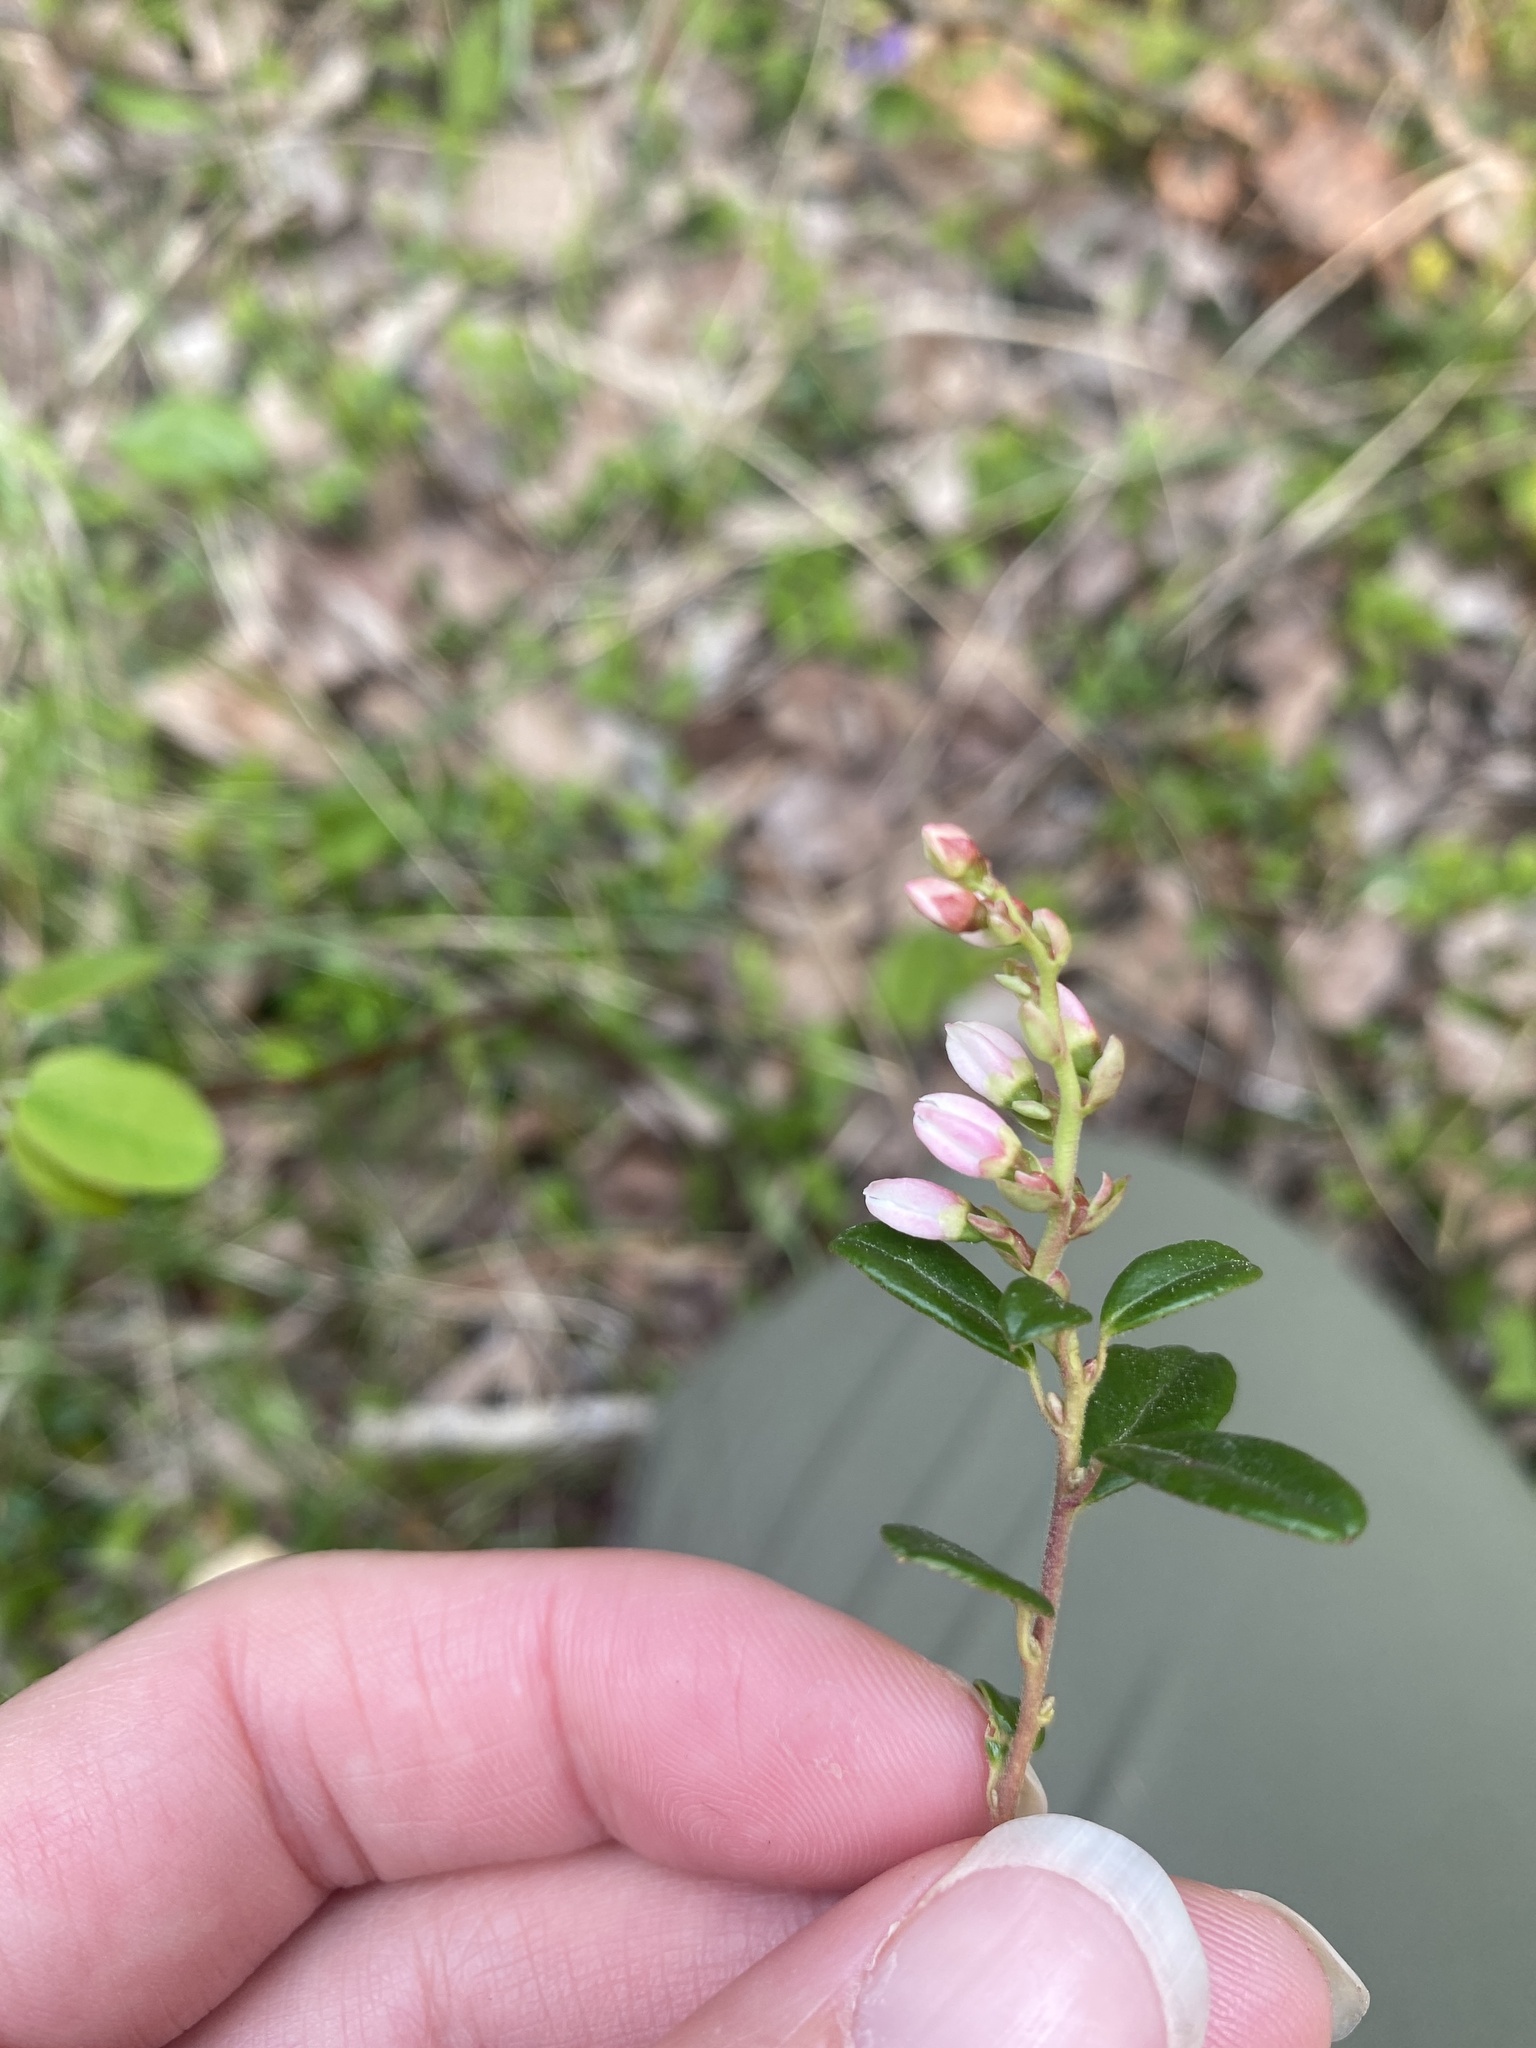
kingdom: Plantae
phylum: Tracheophyta
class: Magnoliopsida
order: Ericales
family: Ericaceae
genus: Vaccinium
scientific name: Vaccinium vitis-idaea
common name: Cowberry
